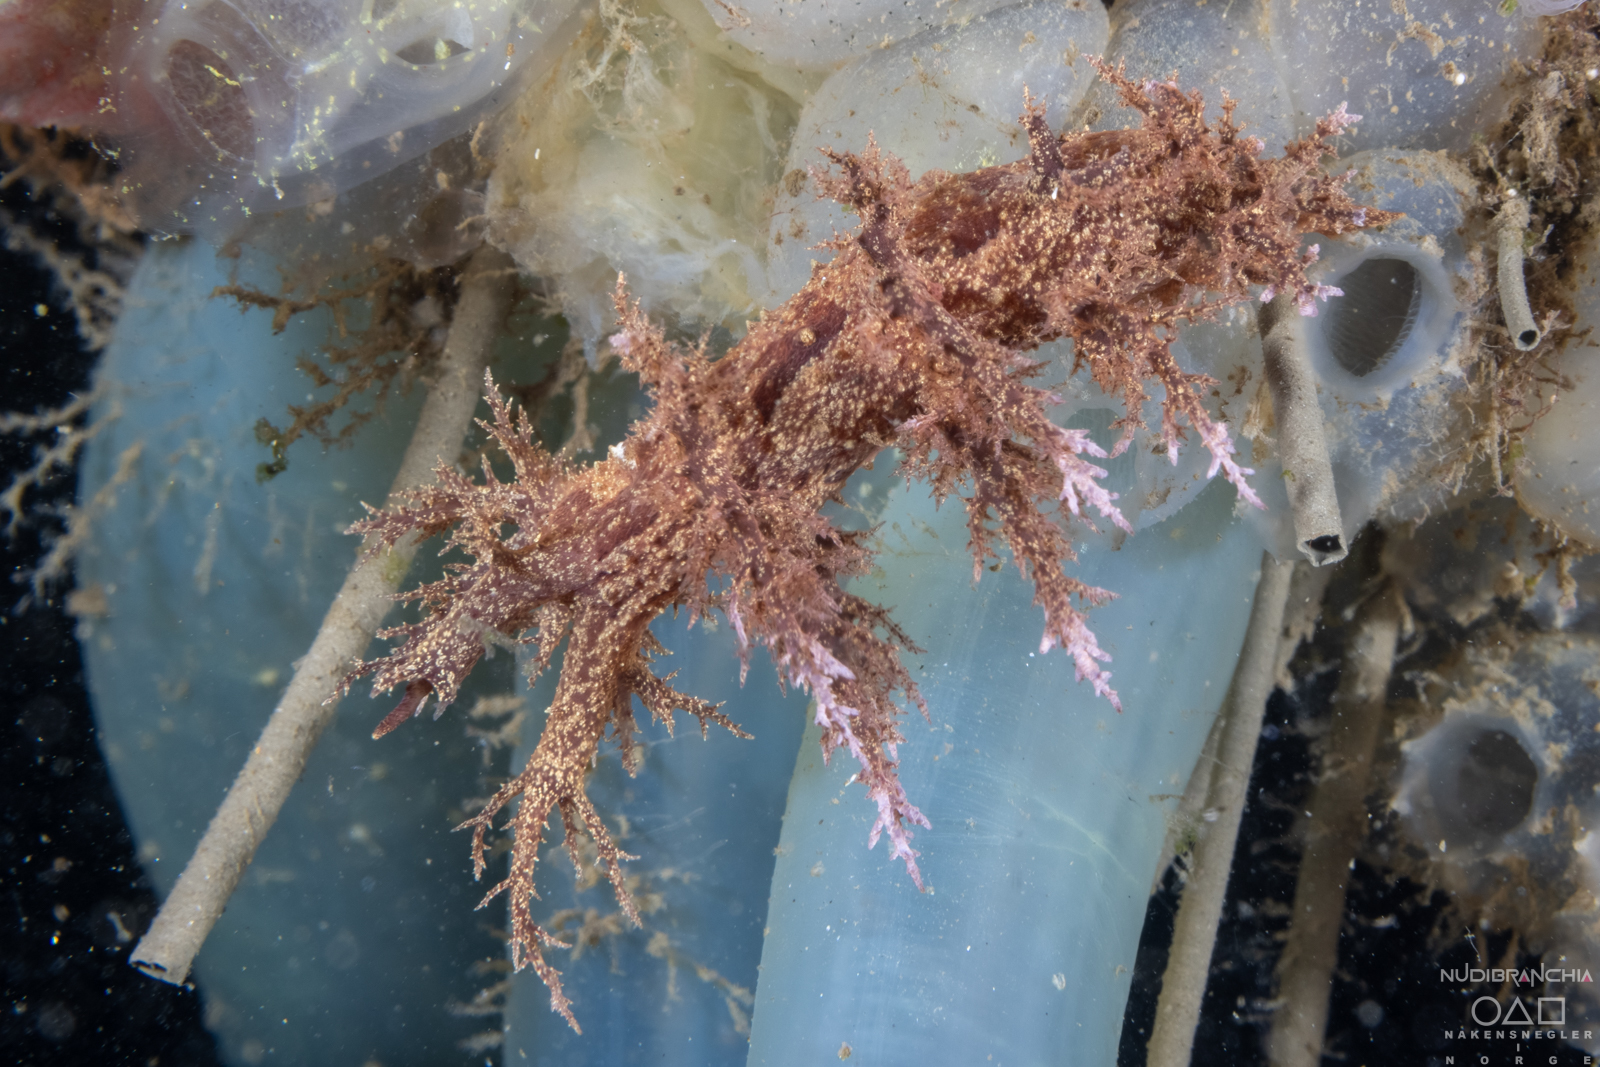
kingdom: Animalia
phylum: Mollusca
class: Gastropoda
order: Nudibranchia
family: Dendronotidae
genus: Dendronotus
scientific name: Dendronotus europaeus
